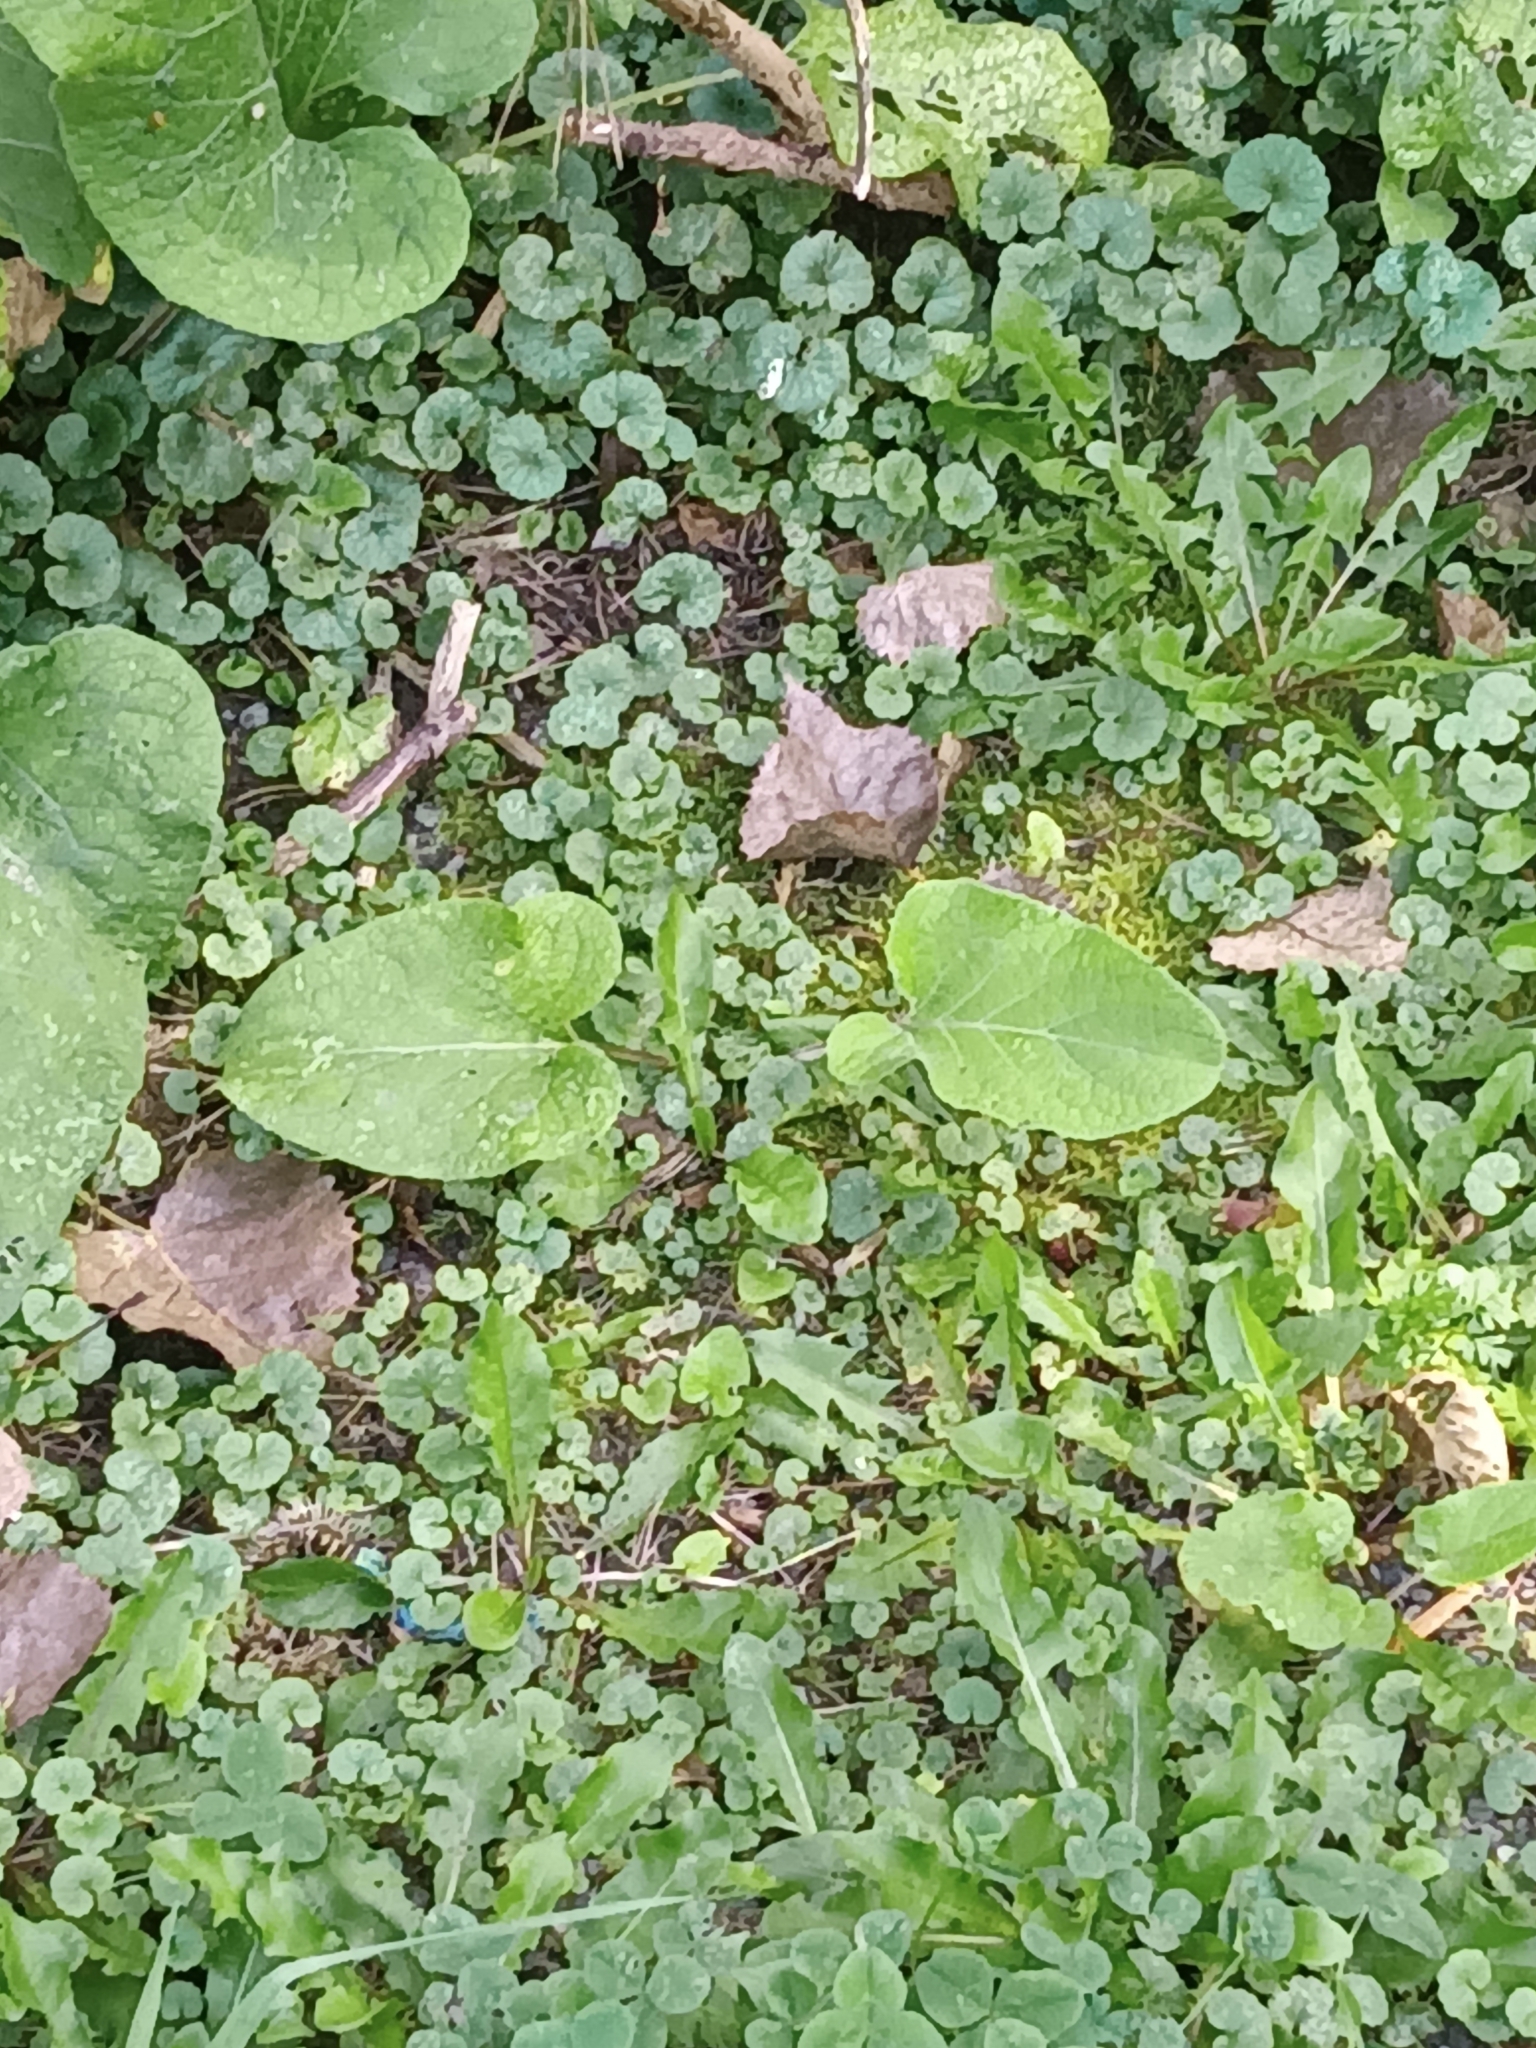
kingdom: Plantae
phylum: Tracheophyta
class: Magnoliopsida
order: Lamiales
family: Lamiaceae
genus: Glechoma
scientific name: Glechoma hederacea
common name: Ground ivy
